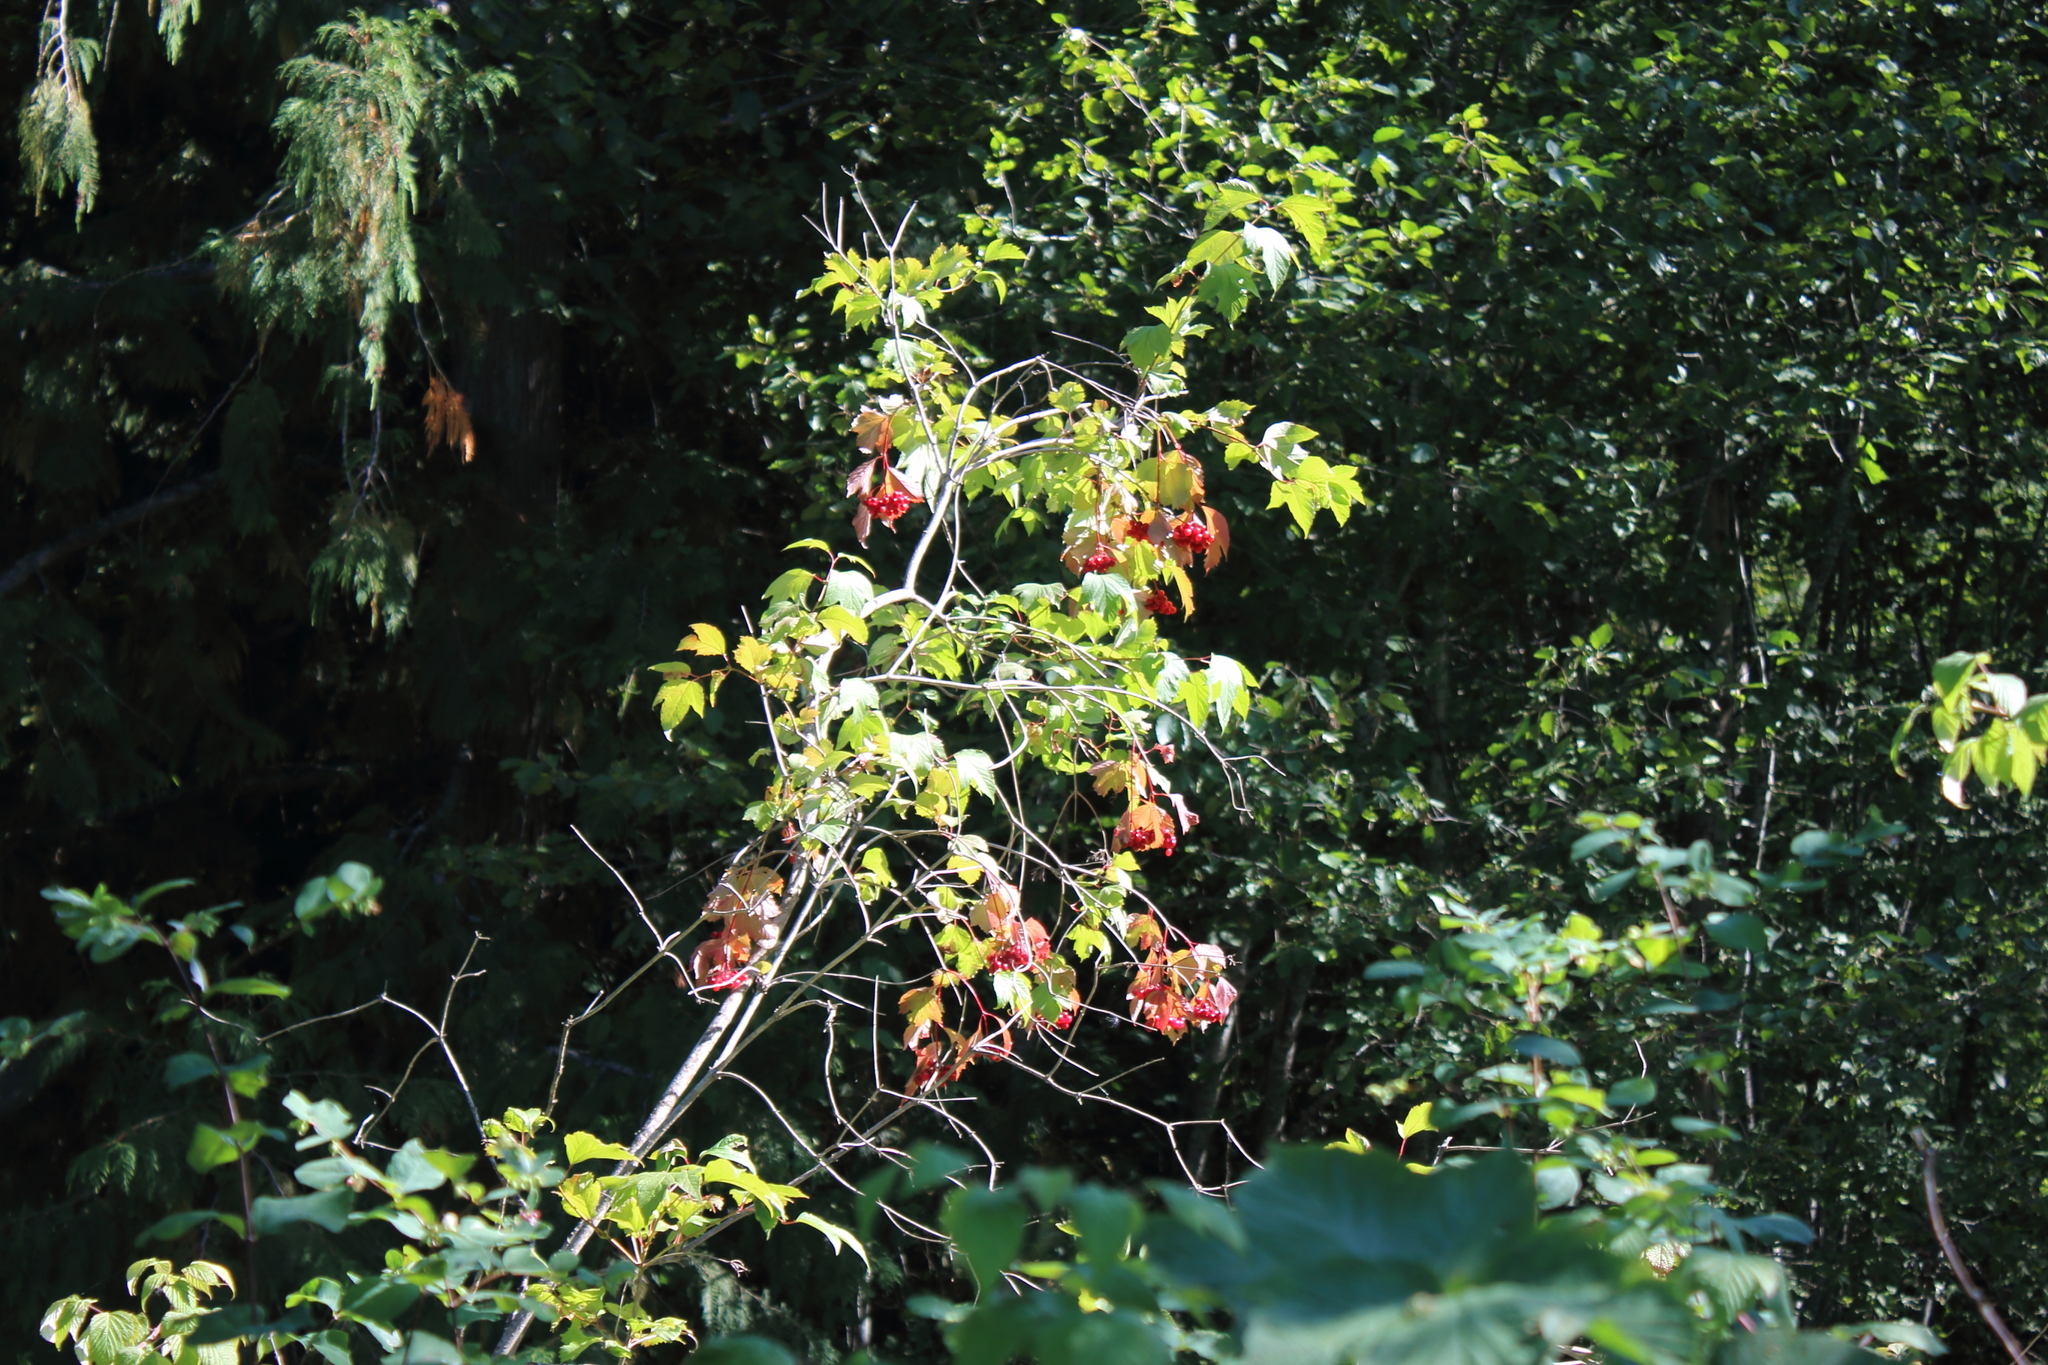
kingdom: Plantae
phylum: Tracheophyta
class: Magnoliopsida
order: Dipsacales
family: Viburnaceae
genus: Viburnum
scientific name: Viburnum edule
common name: Mooseberry
